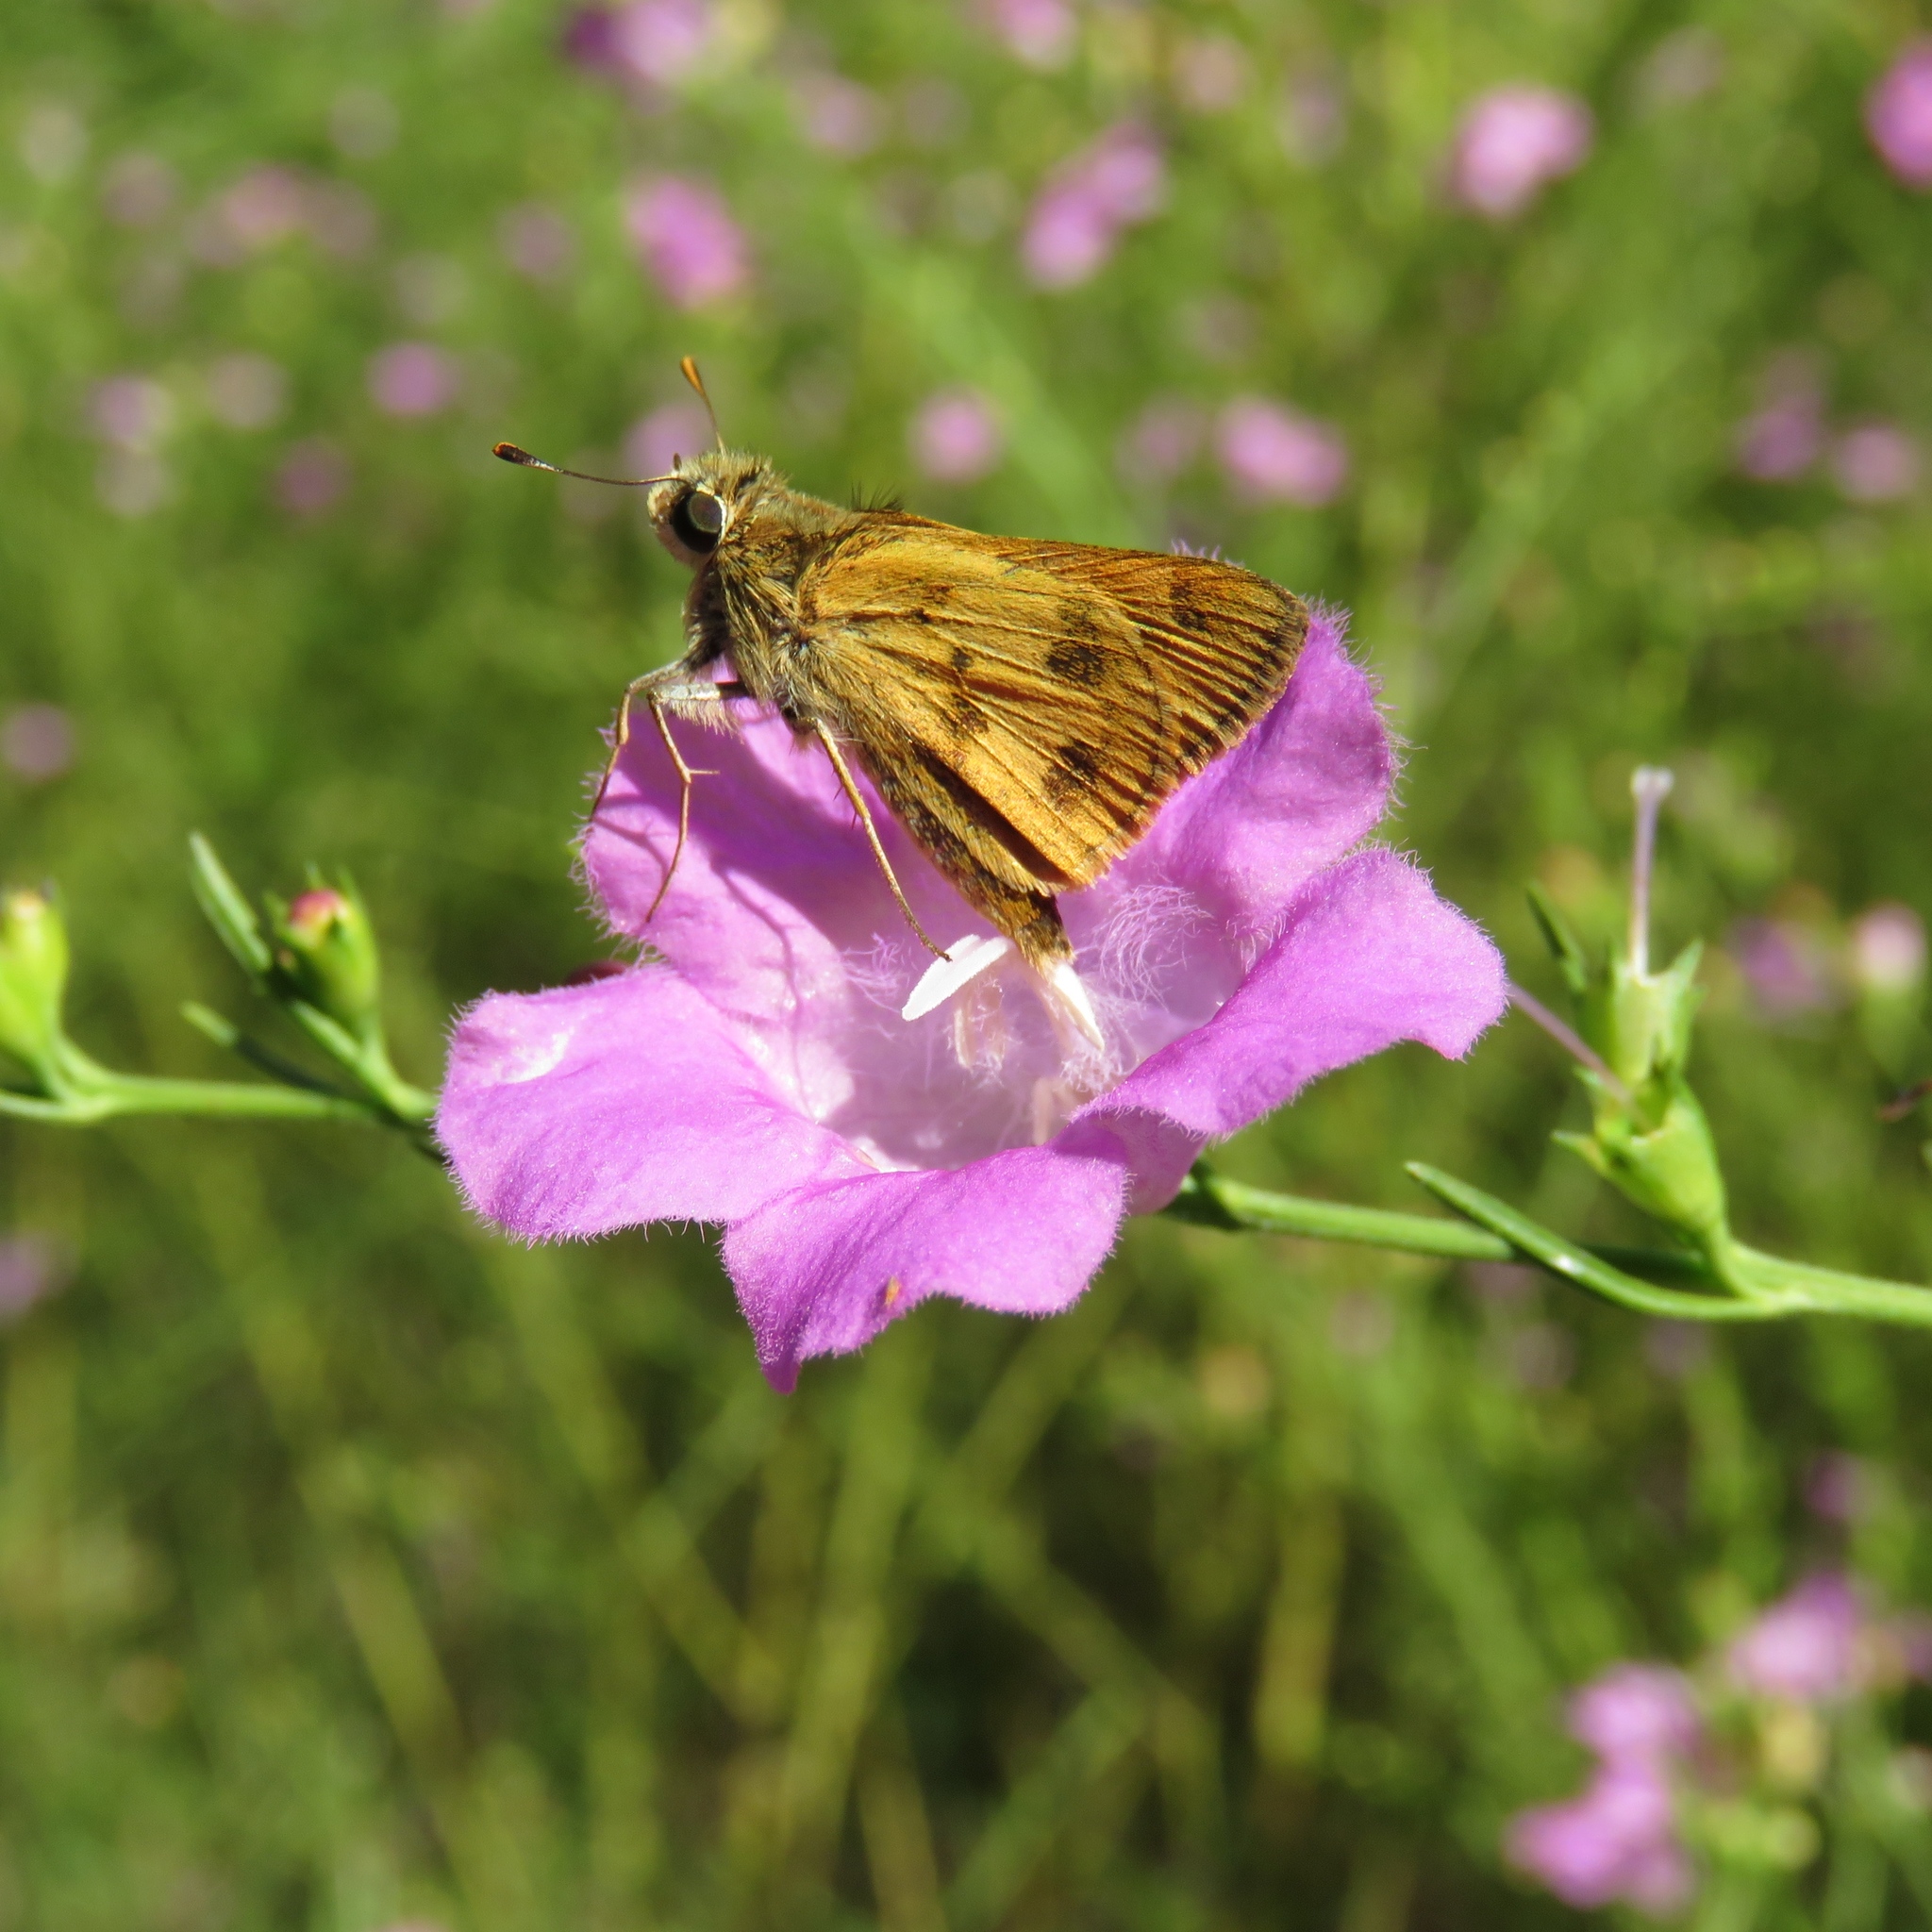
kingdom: Animalia
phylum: Arthropoda
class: Insecta
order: Lepidoptera
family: Hesperiidae
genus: Hylephila
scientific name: Hylephila phyleus
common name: Fiery skipper
